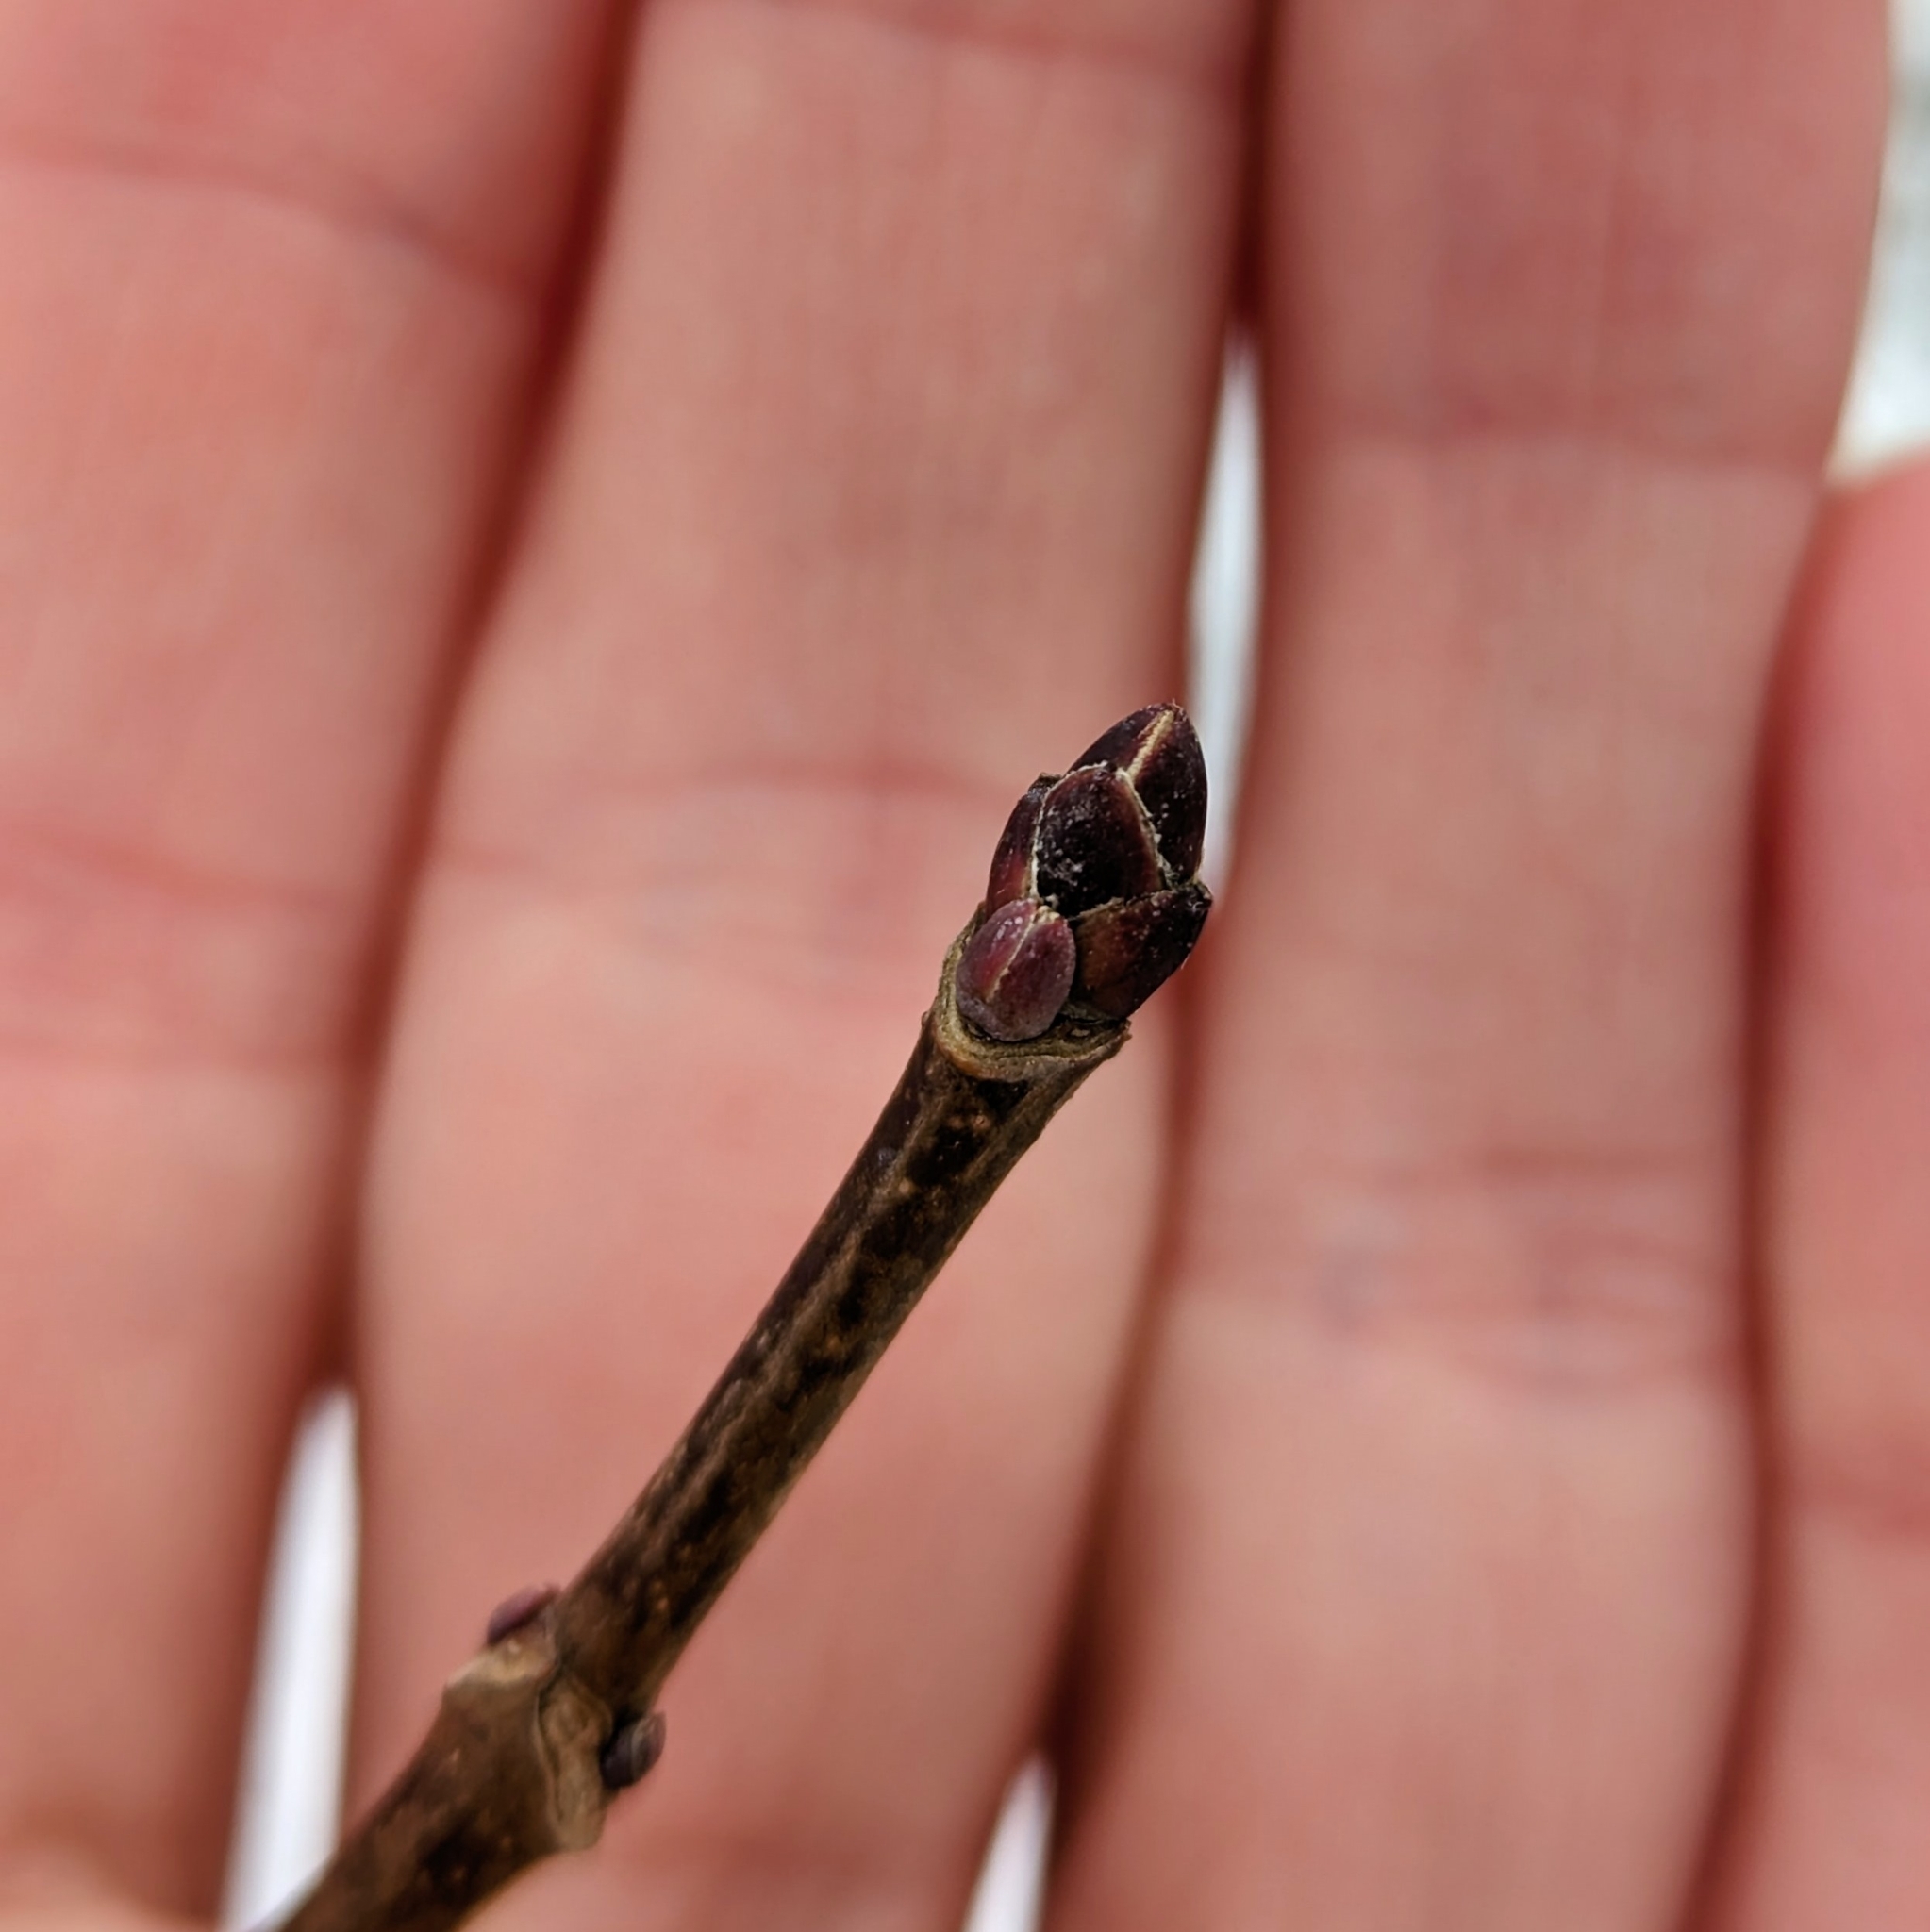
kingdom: Plantae
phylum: Tracheophyta
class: Magnoliopsida
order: Sapindales
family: Sapindaceae
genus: Acer
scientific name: Acer platanoides
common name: Norway maple
